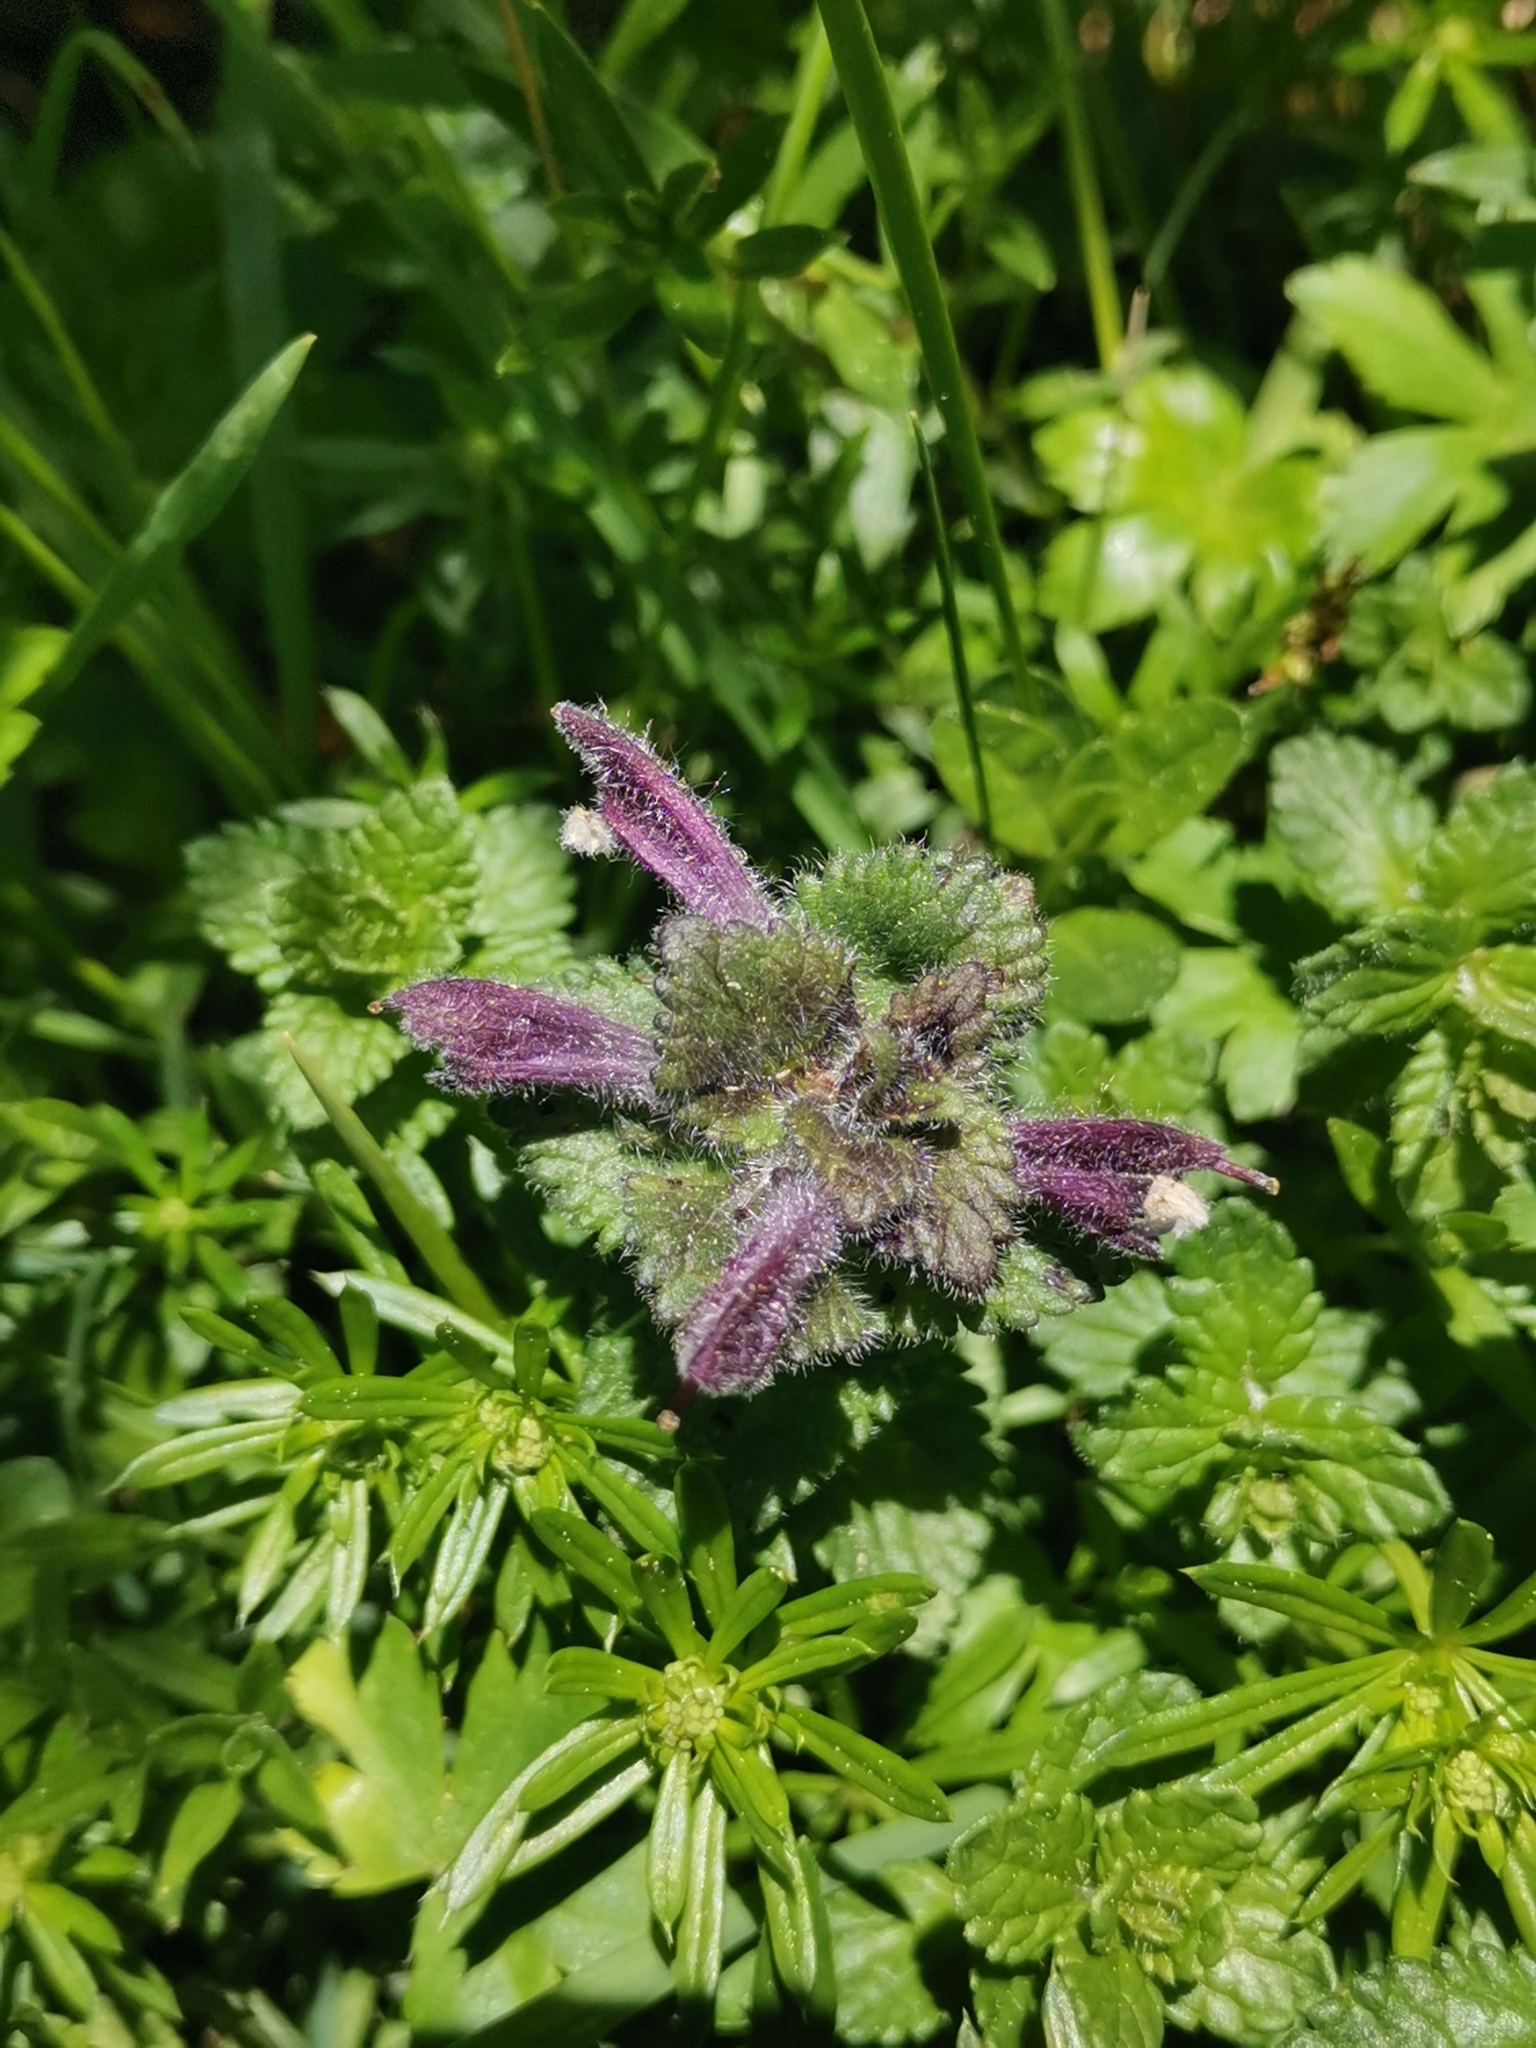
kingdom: Plantae
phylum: Tracheophyta
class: Magnoliopsida
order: Lamiales
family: Orobanchaceae
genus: Bartsia
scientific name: Bartsia alpina
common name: Alpine bartsia
